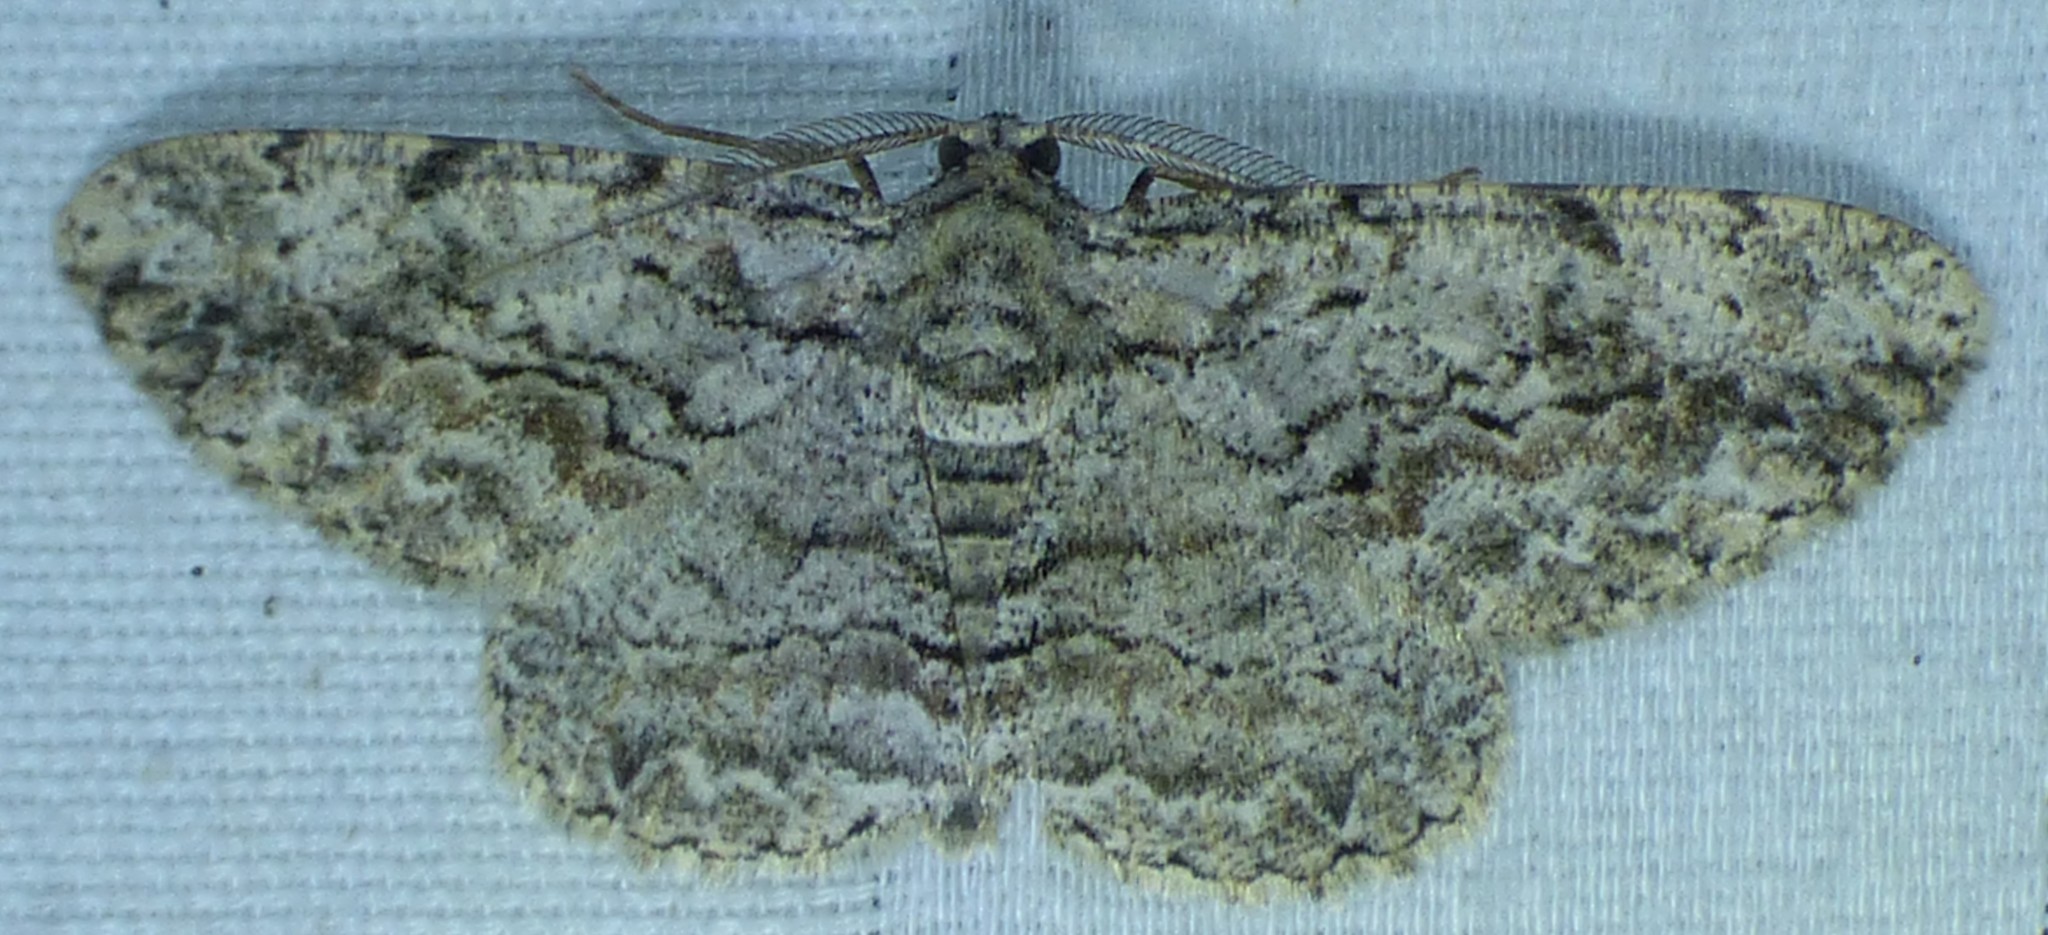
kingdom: Animalia
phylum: Arthropoda
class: Insecta
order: Lepidoptera
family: Geometridae
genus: Anavitrinella
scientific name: Anavitrinella pampinaria
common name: Common gray
